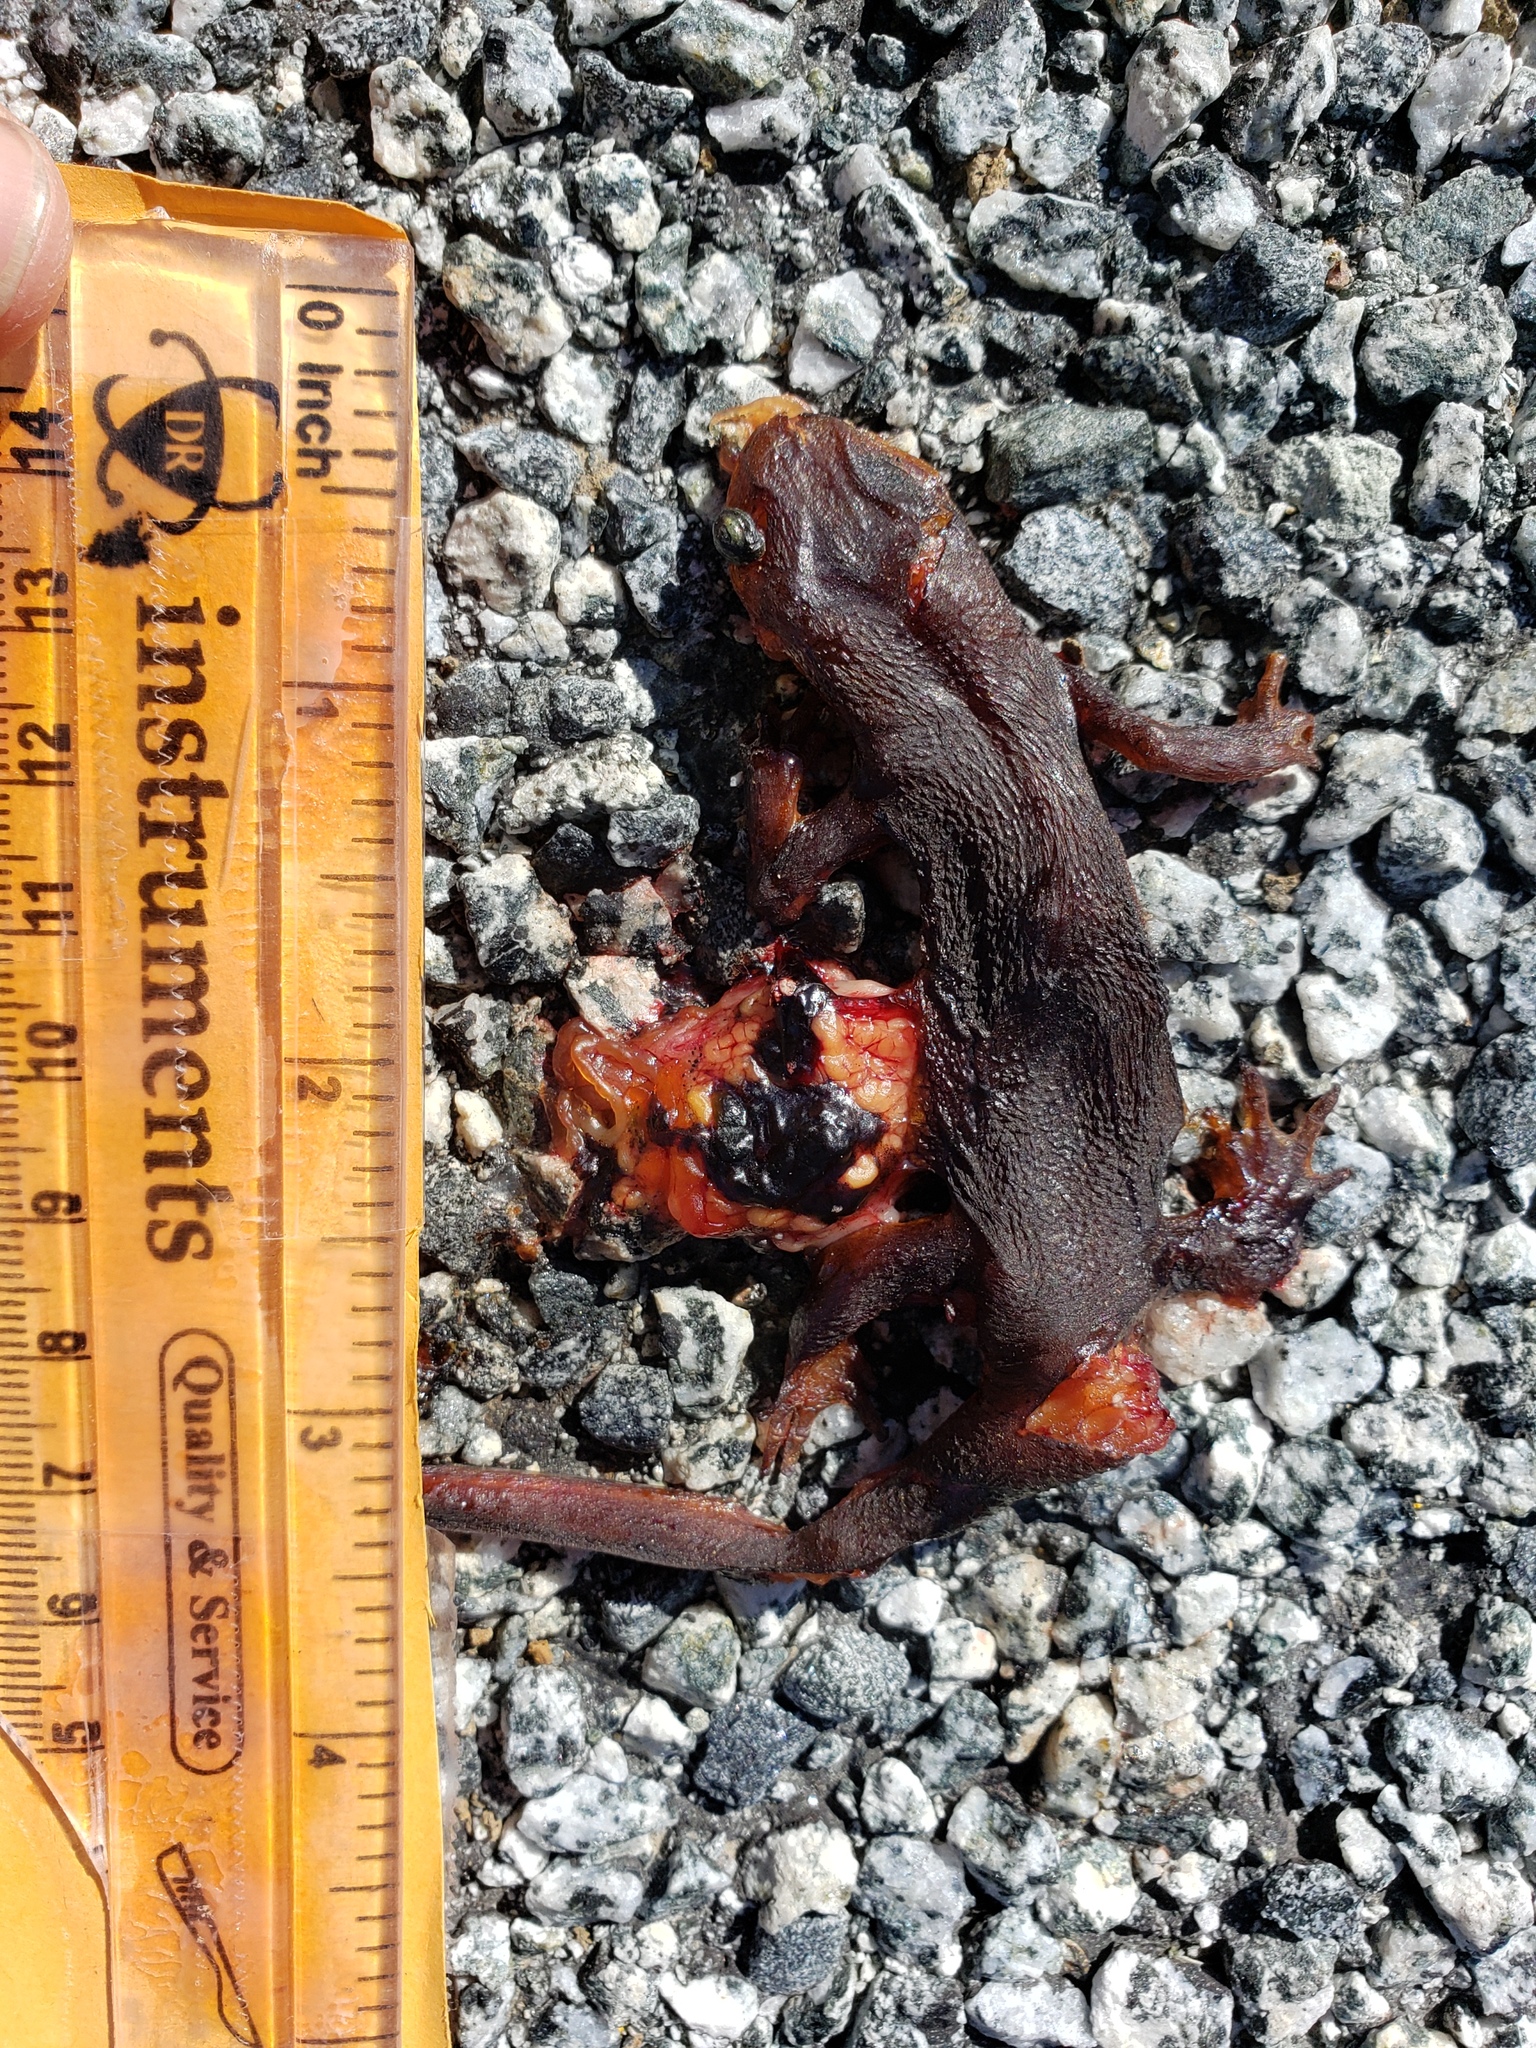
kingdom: Animalia
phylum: Chordata
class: Amphibia
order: Caudata
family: Salamandridae
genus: Taricha
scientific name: Taricha
